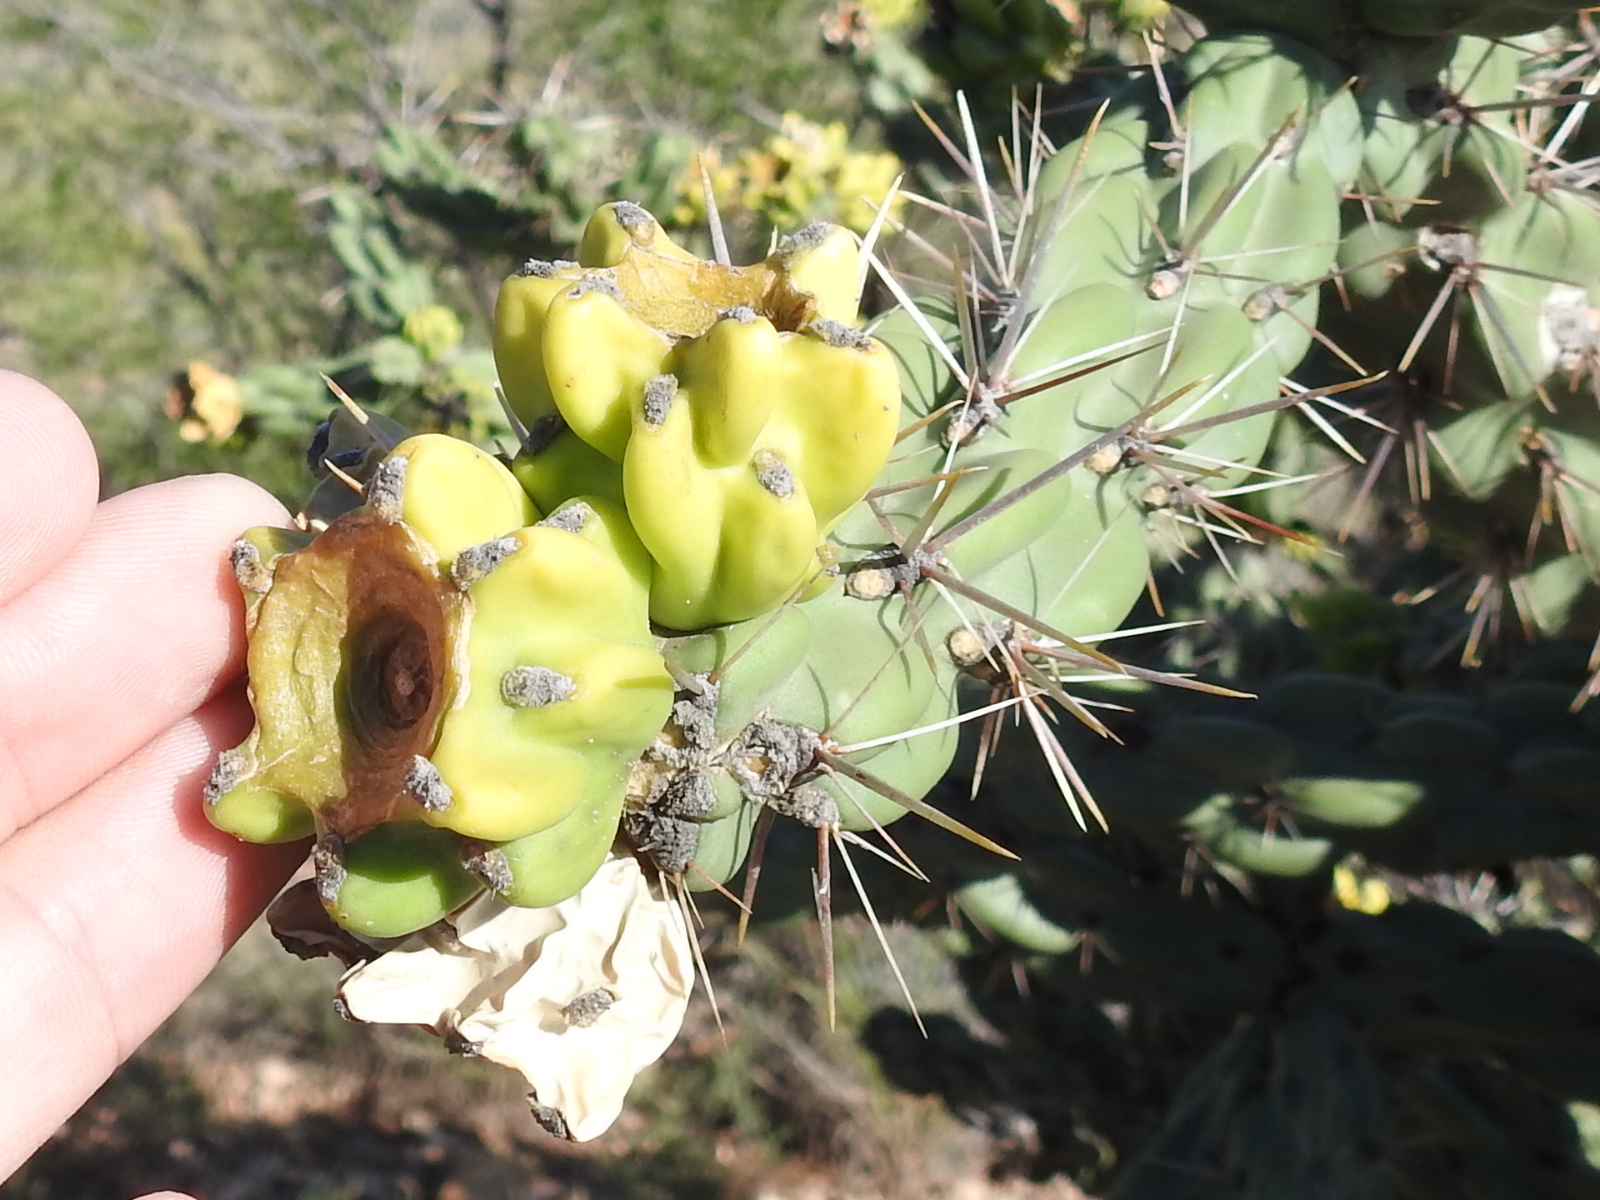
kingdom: Plantae
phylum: Tracheophyta
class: Magnoliopsida
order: Caryophyllales
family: Cactaceae
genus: Cylindropuntia
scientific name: Cylindropuntia imbricata
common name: Candelabrum cactus
